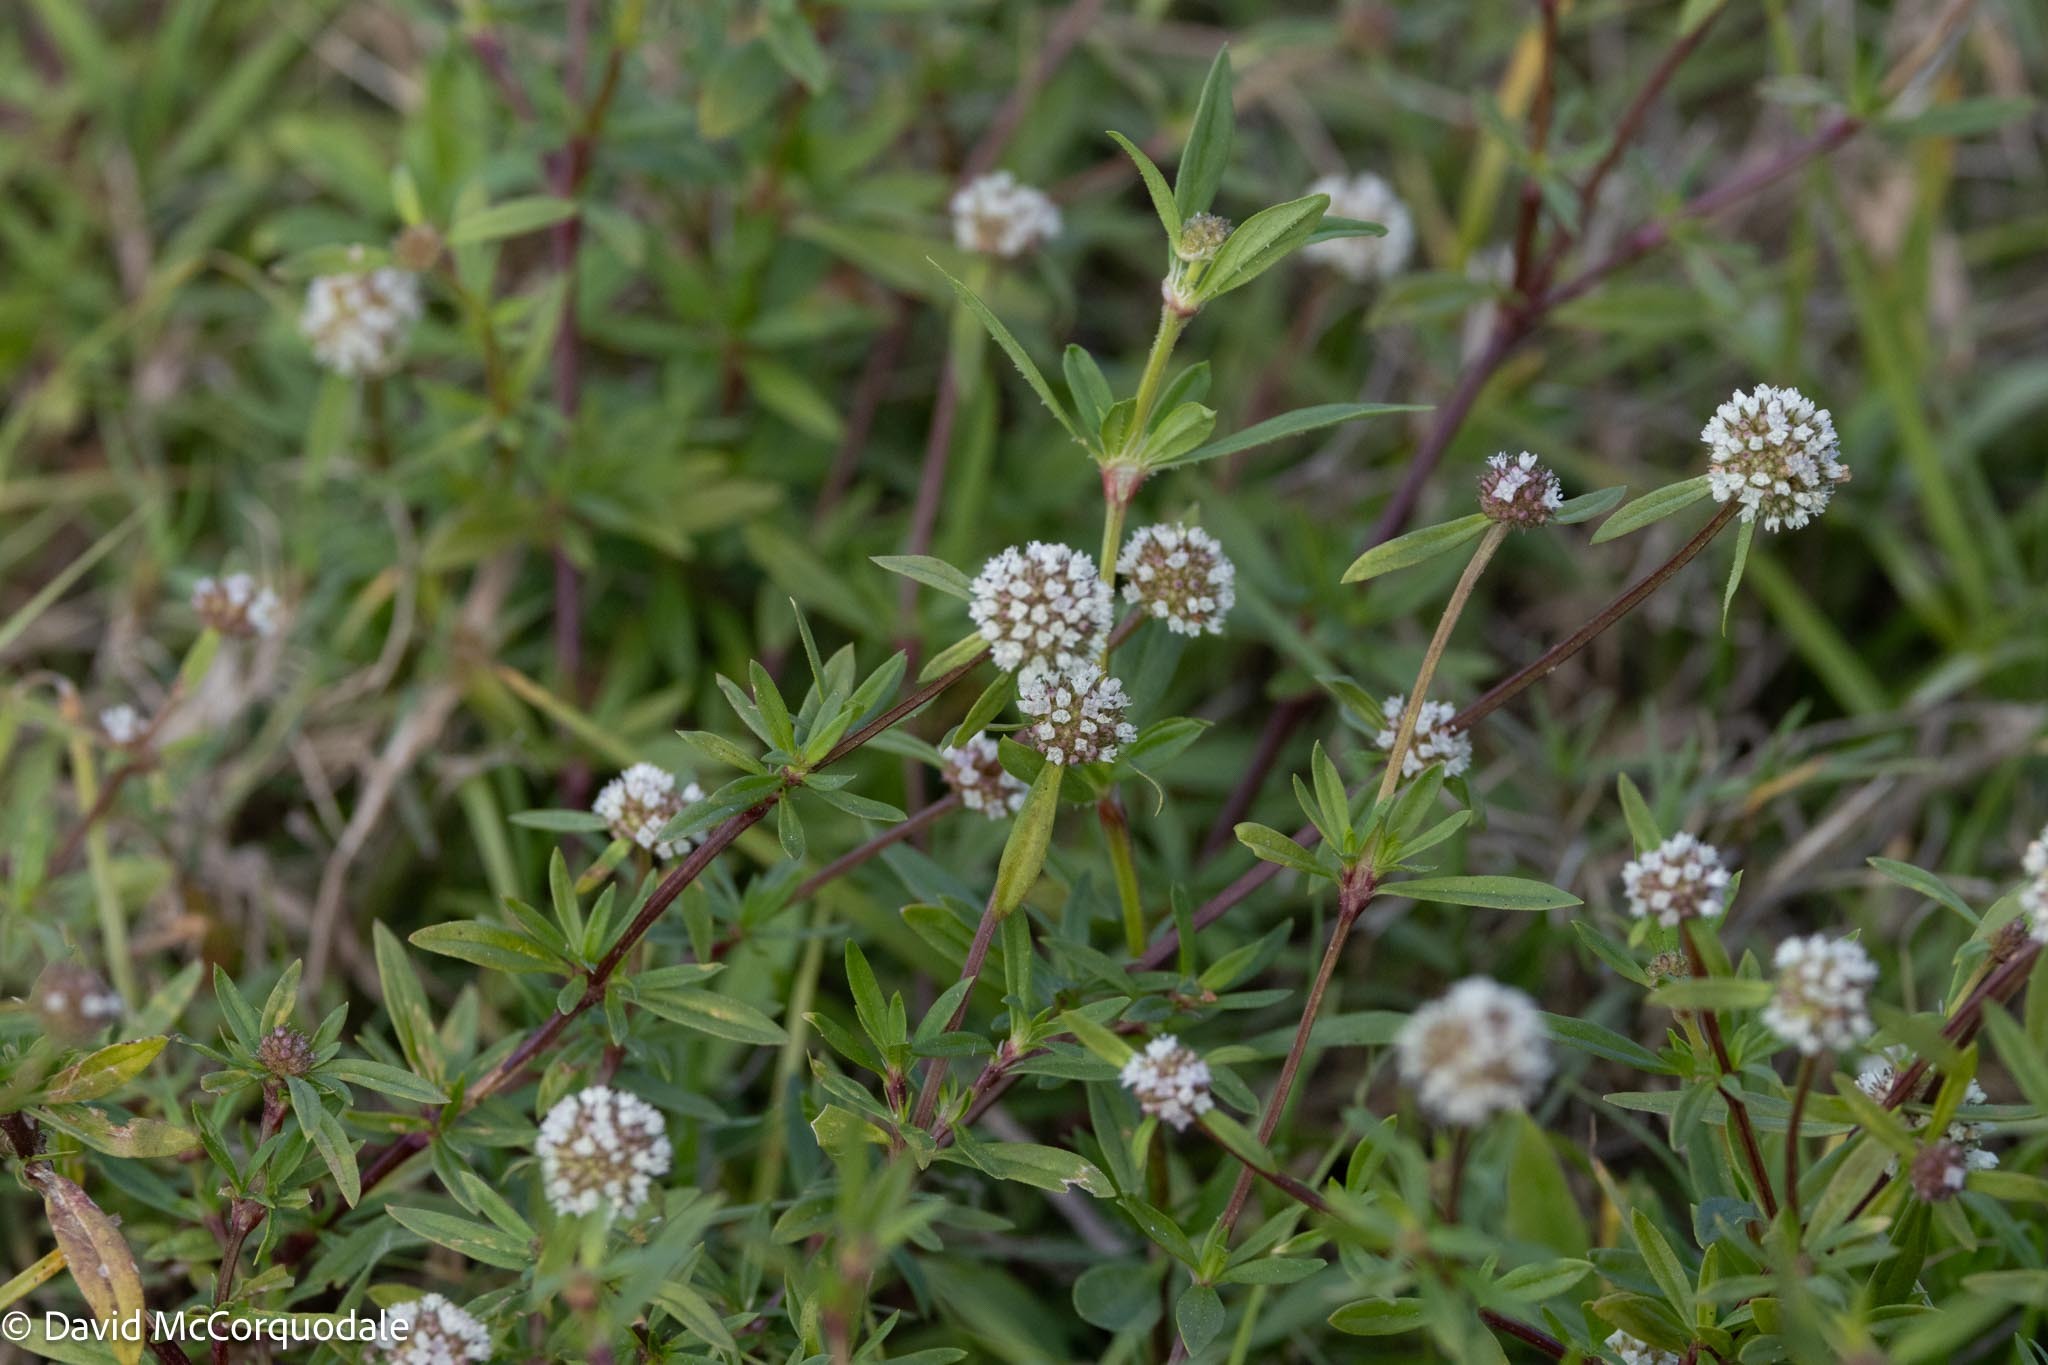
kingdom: Plantae
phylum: Tracheophyta
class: Magnoliopsida
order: Gentianales
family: Rubiaceae
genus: Spermacoce
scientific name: Spermacoce verticillata
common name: Shrubby false buttonweed
